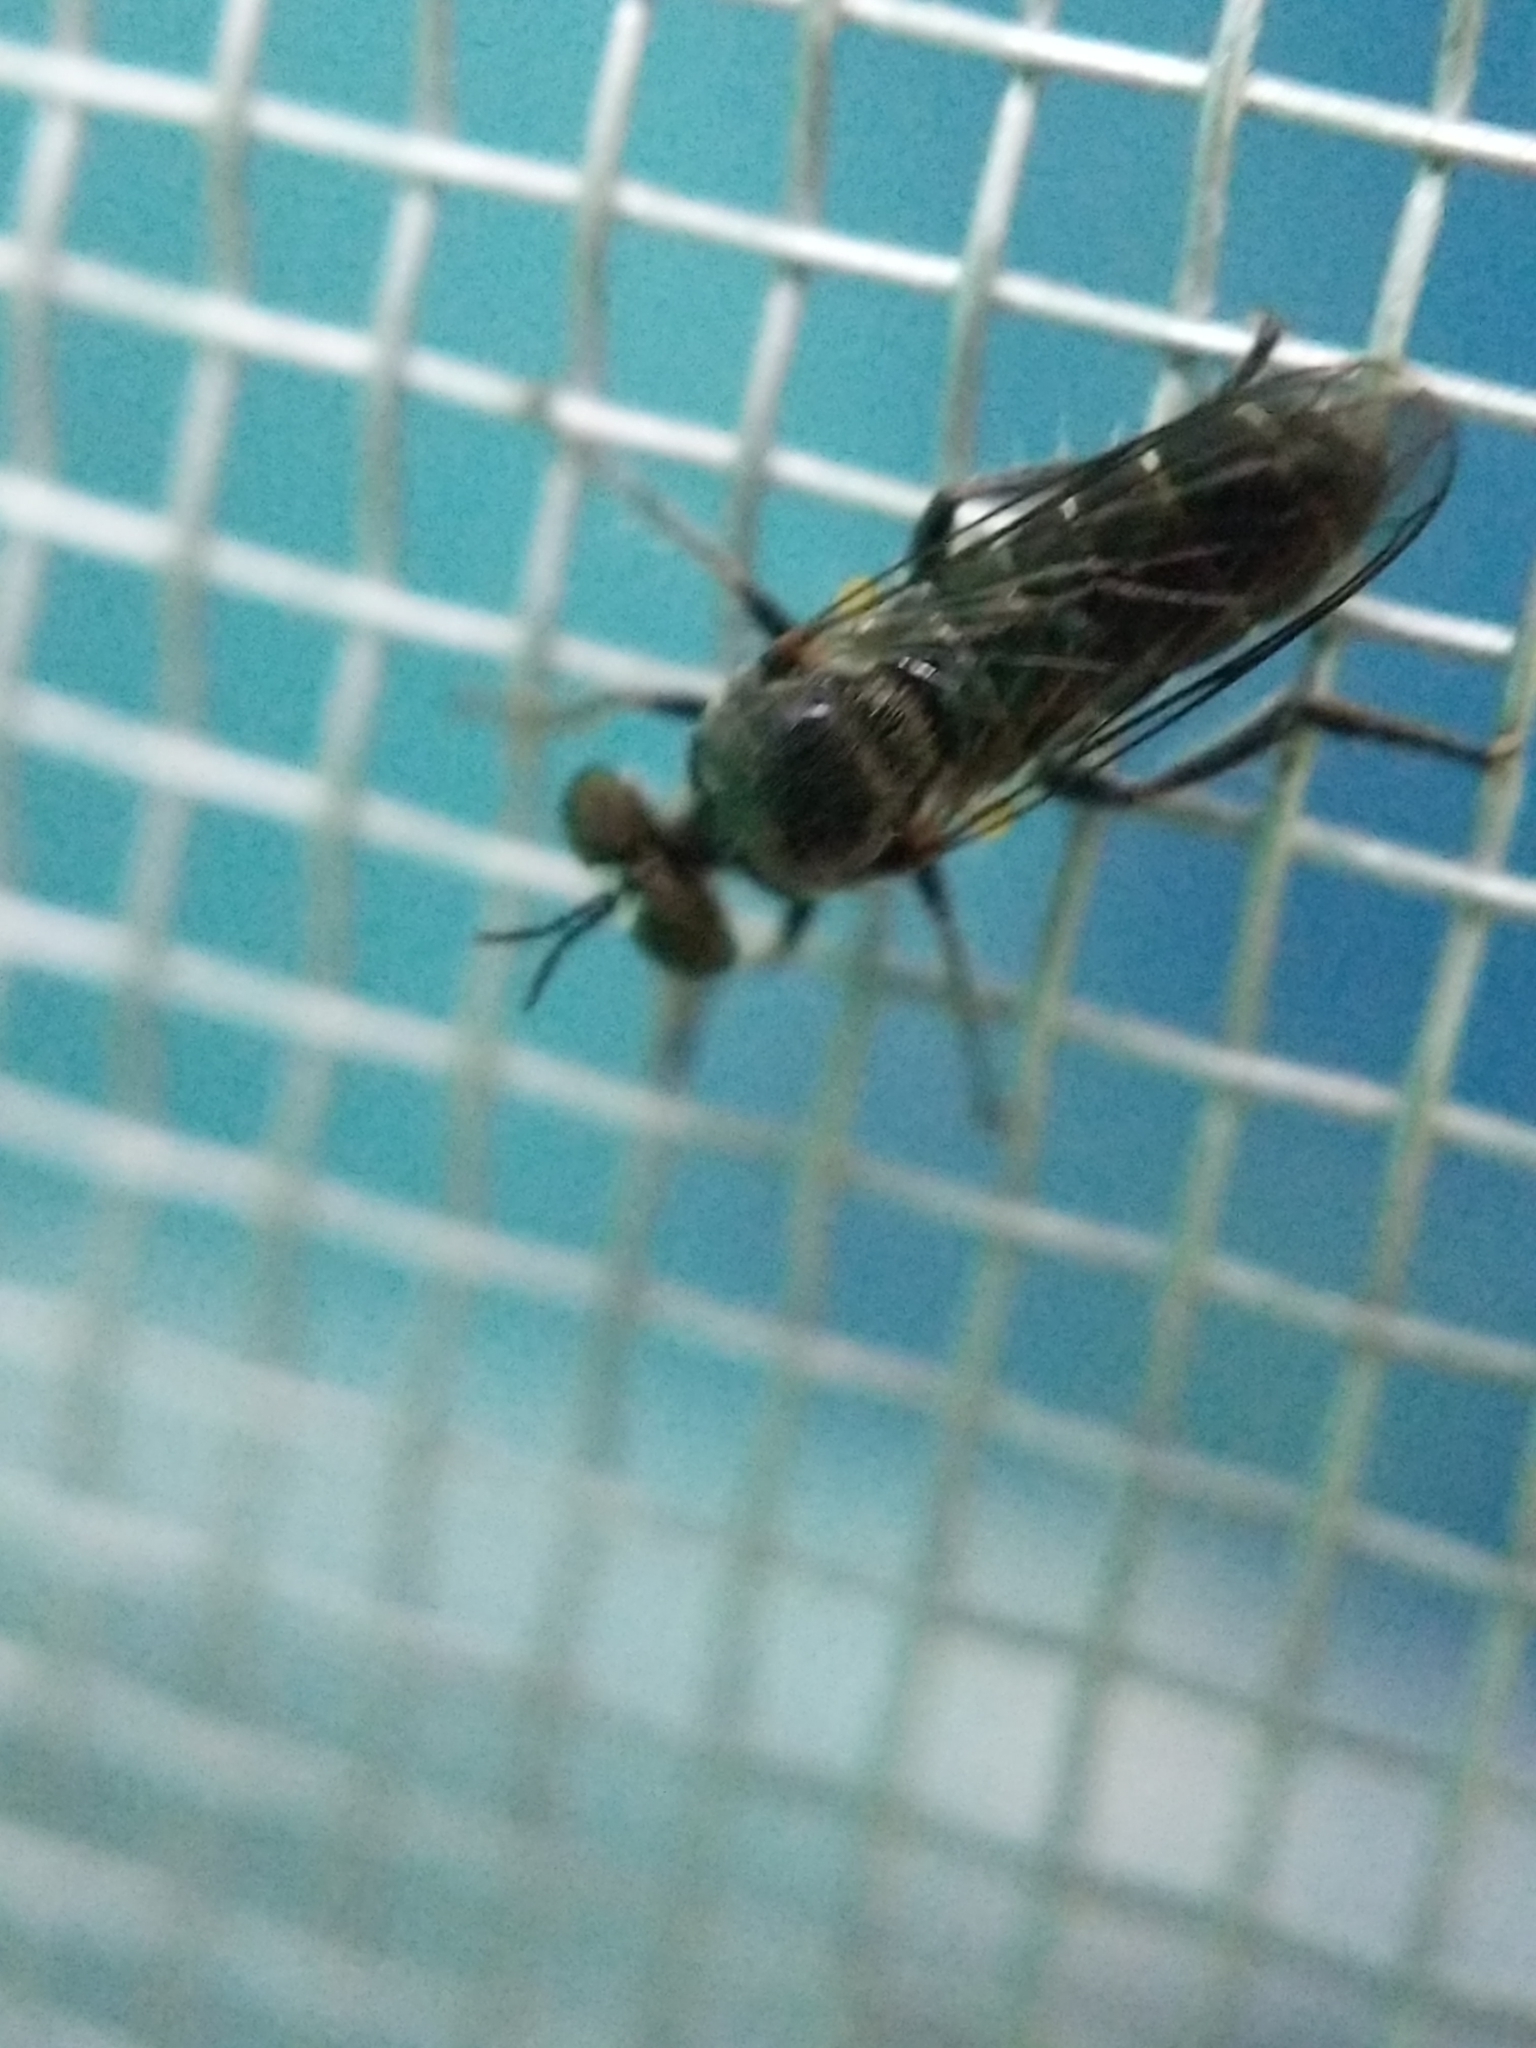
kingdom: Animalia
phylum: Arthropoda
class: Insecta
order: Diptera
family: Asilidae
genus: Atomosia
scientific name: Atomosia puella
